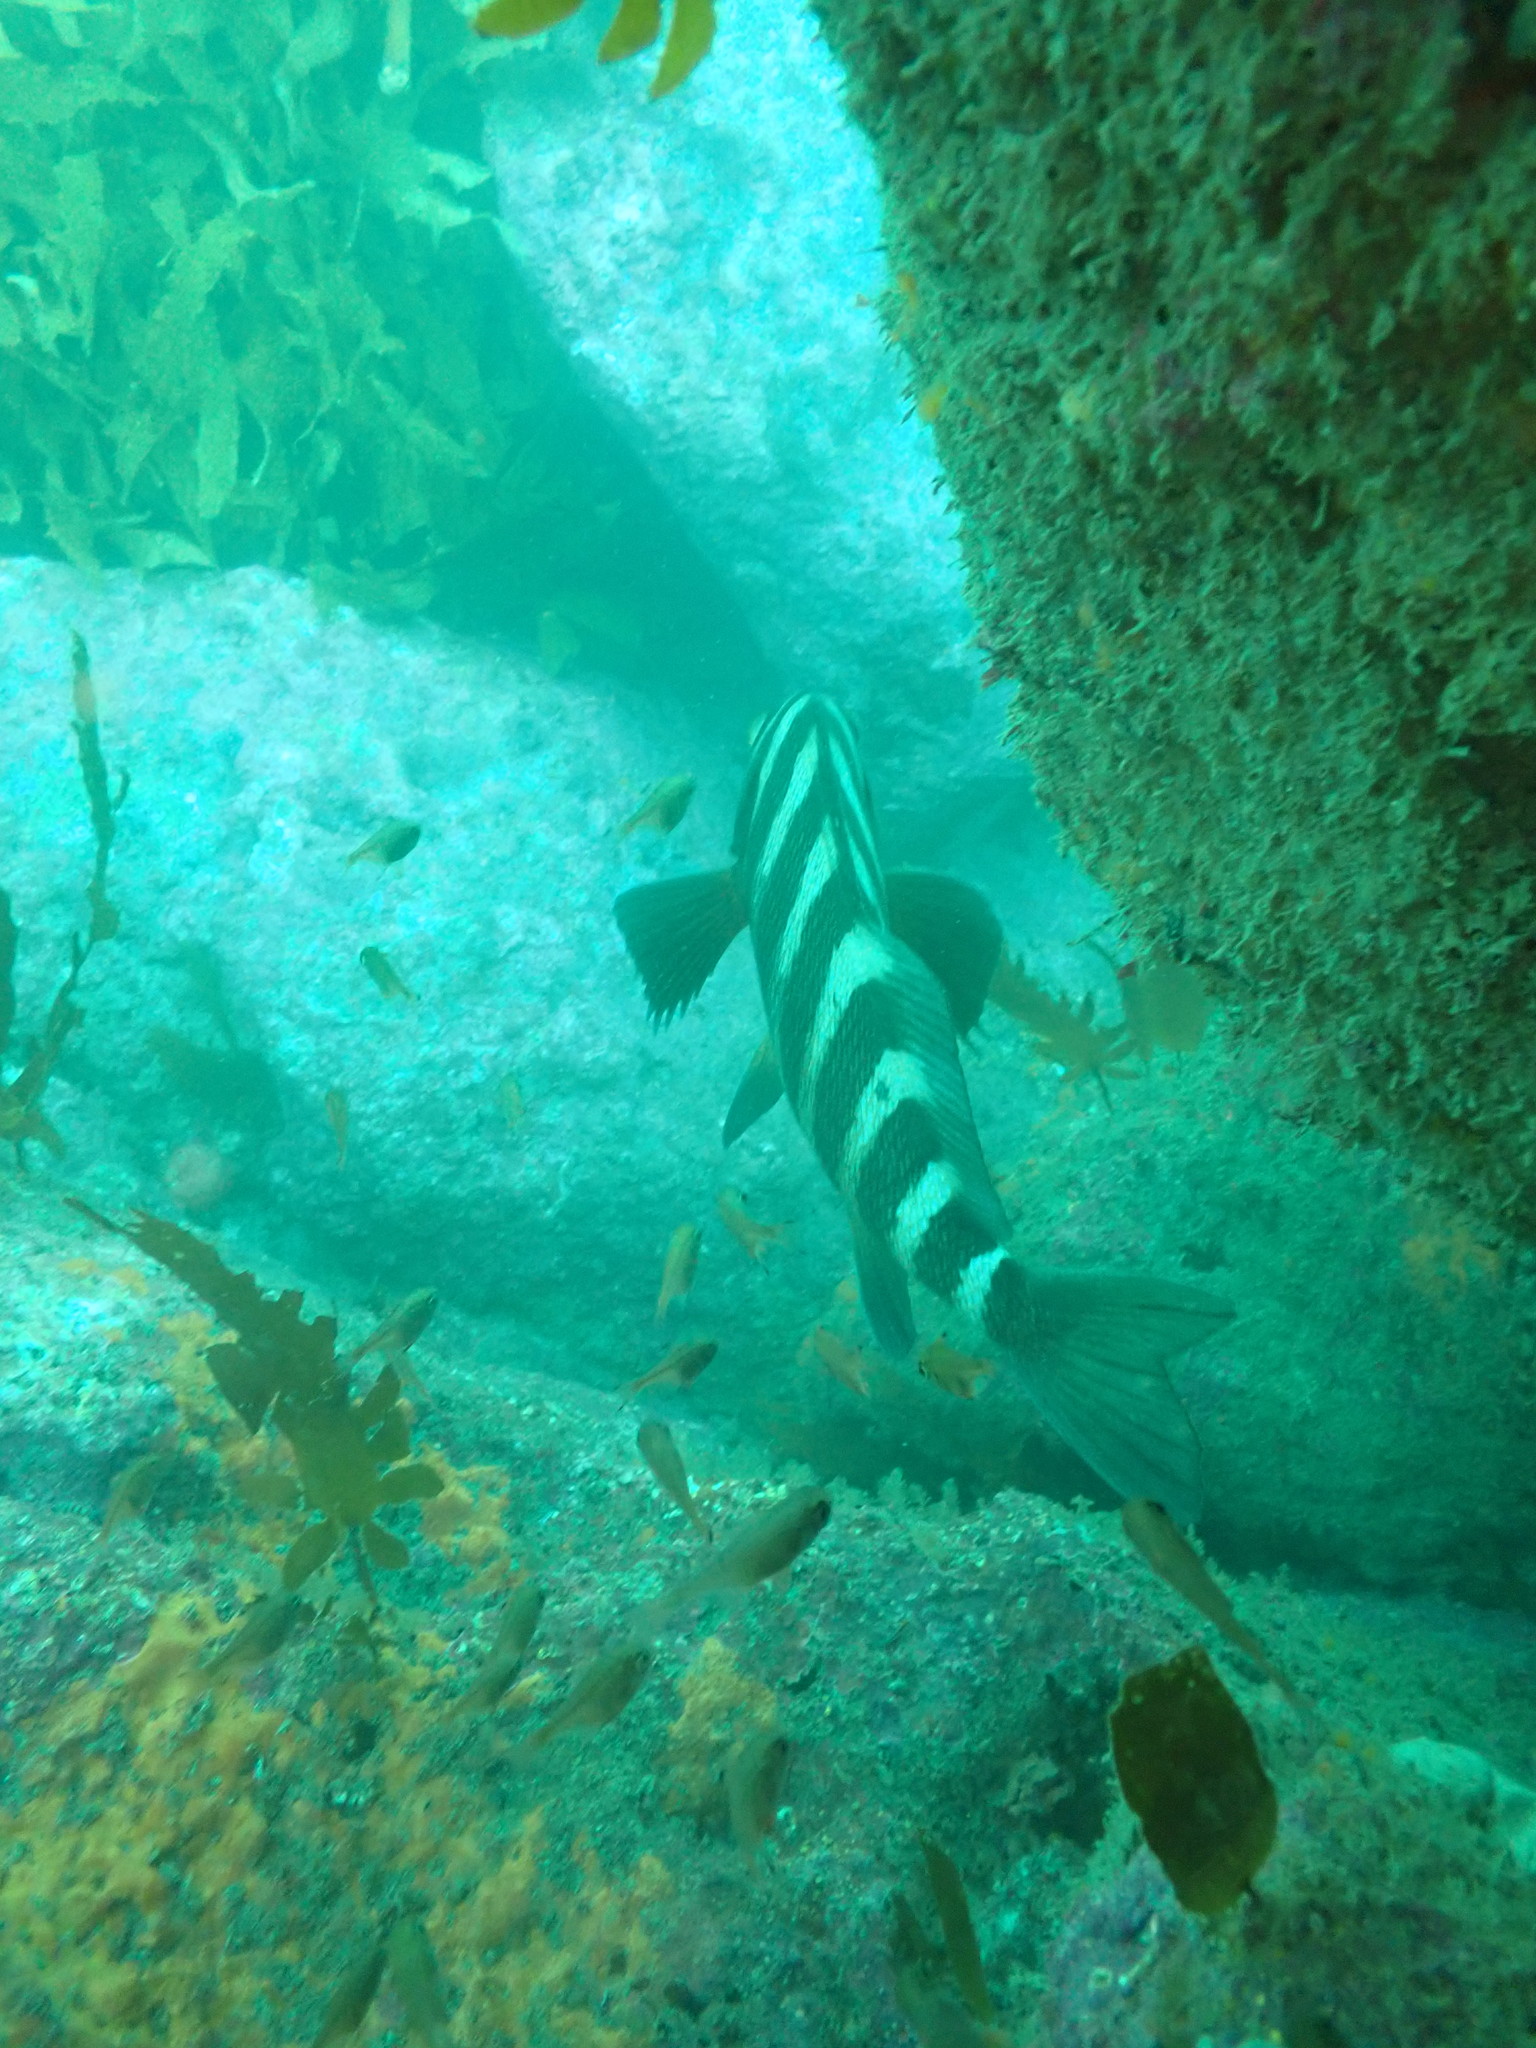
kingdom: Animalia
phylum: Chordata
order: Perciformes
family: Cheilodactylidae
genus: Cheilodactylus
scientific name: Cheilodactylus spectabilis
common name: Red moki
